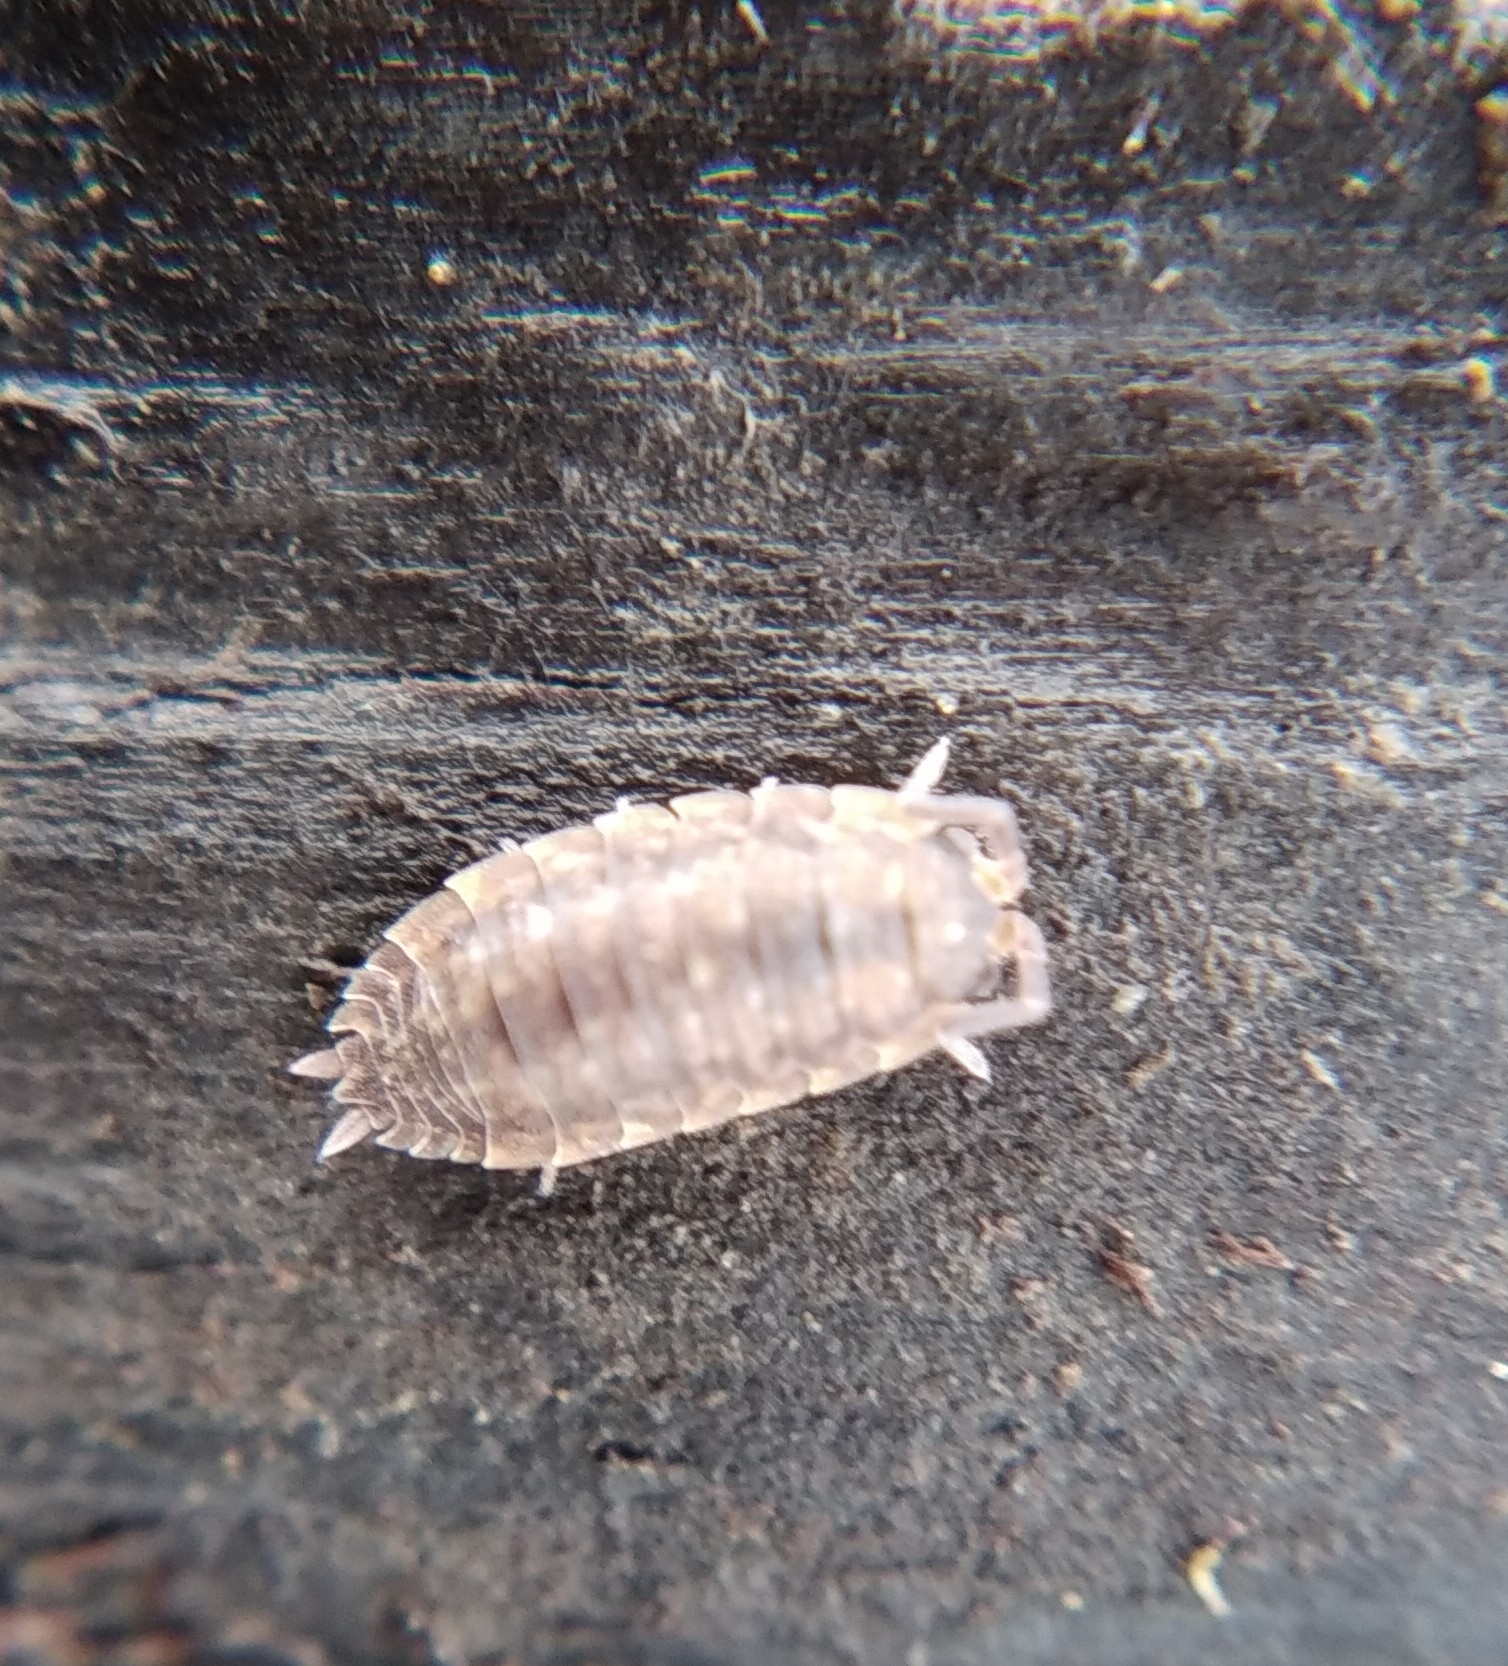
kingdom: Animalia
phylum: Arthropoda
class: Malacostraca
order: Isopoda
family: Porcellionidae
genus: Porcellio
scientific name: Porcellio scaber
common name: Common rough woodlouse
